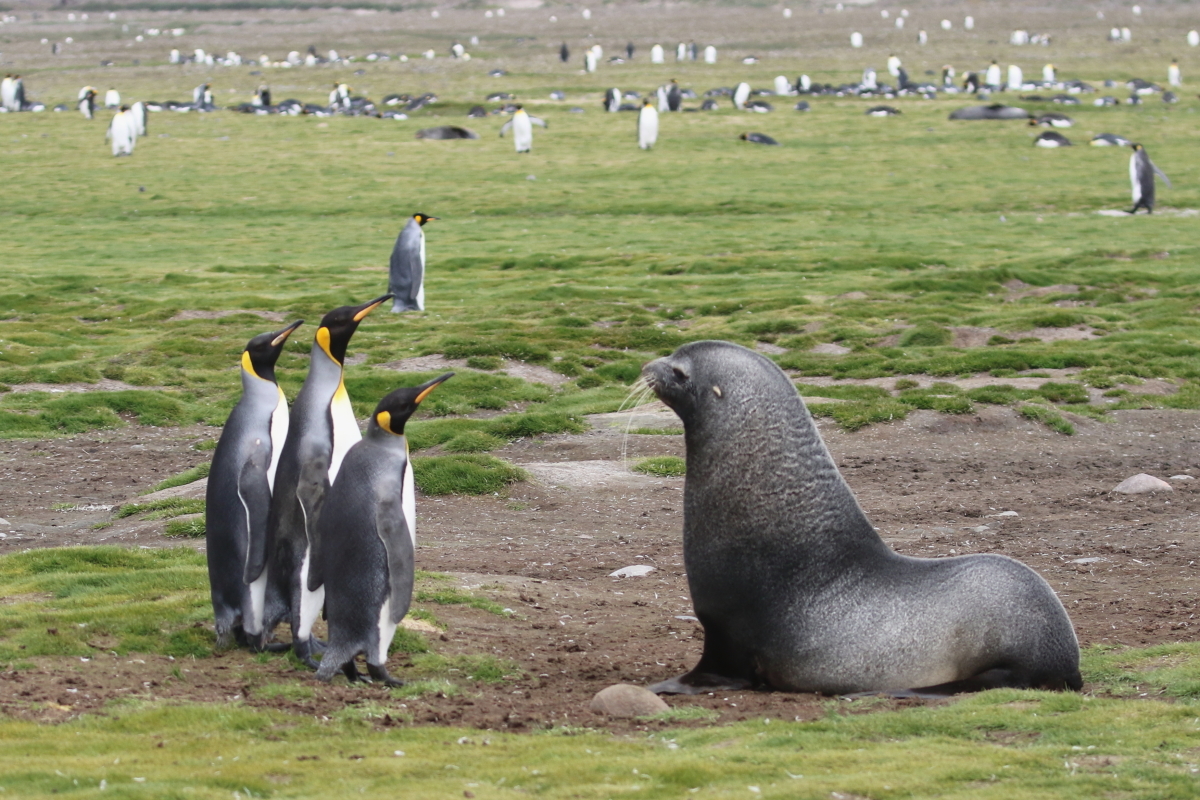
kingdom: Animalia
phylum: Chordata
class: Aves
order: Sphenisciformes
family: Spheniscidae
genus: Aptenodytes
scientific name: Aptenodytes patagonicus
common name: King penguin
